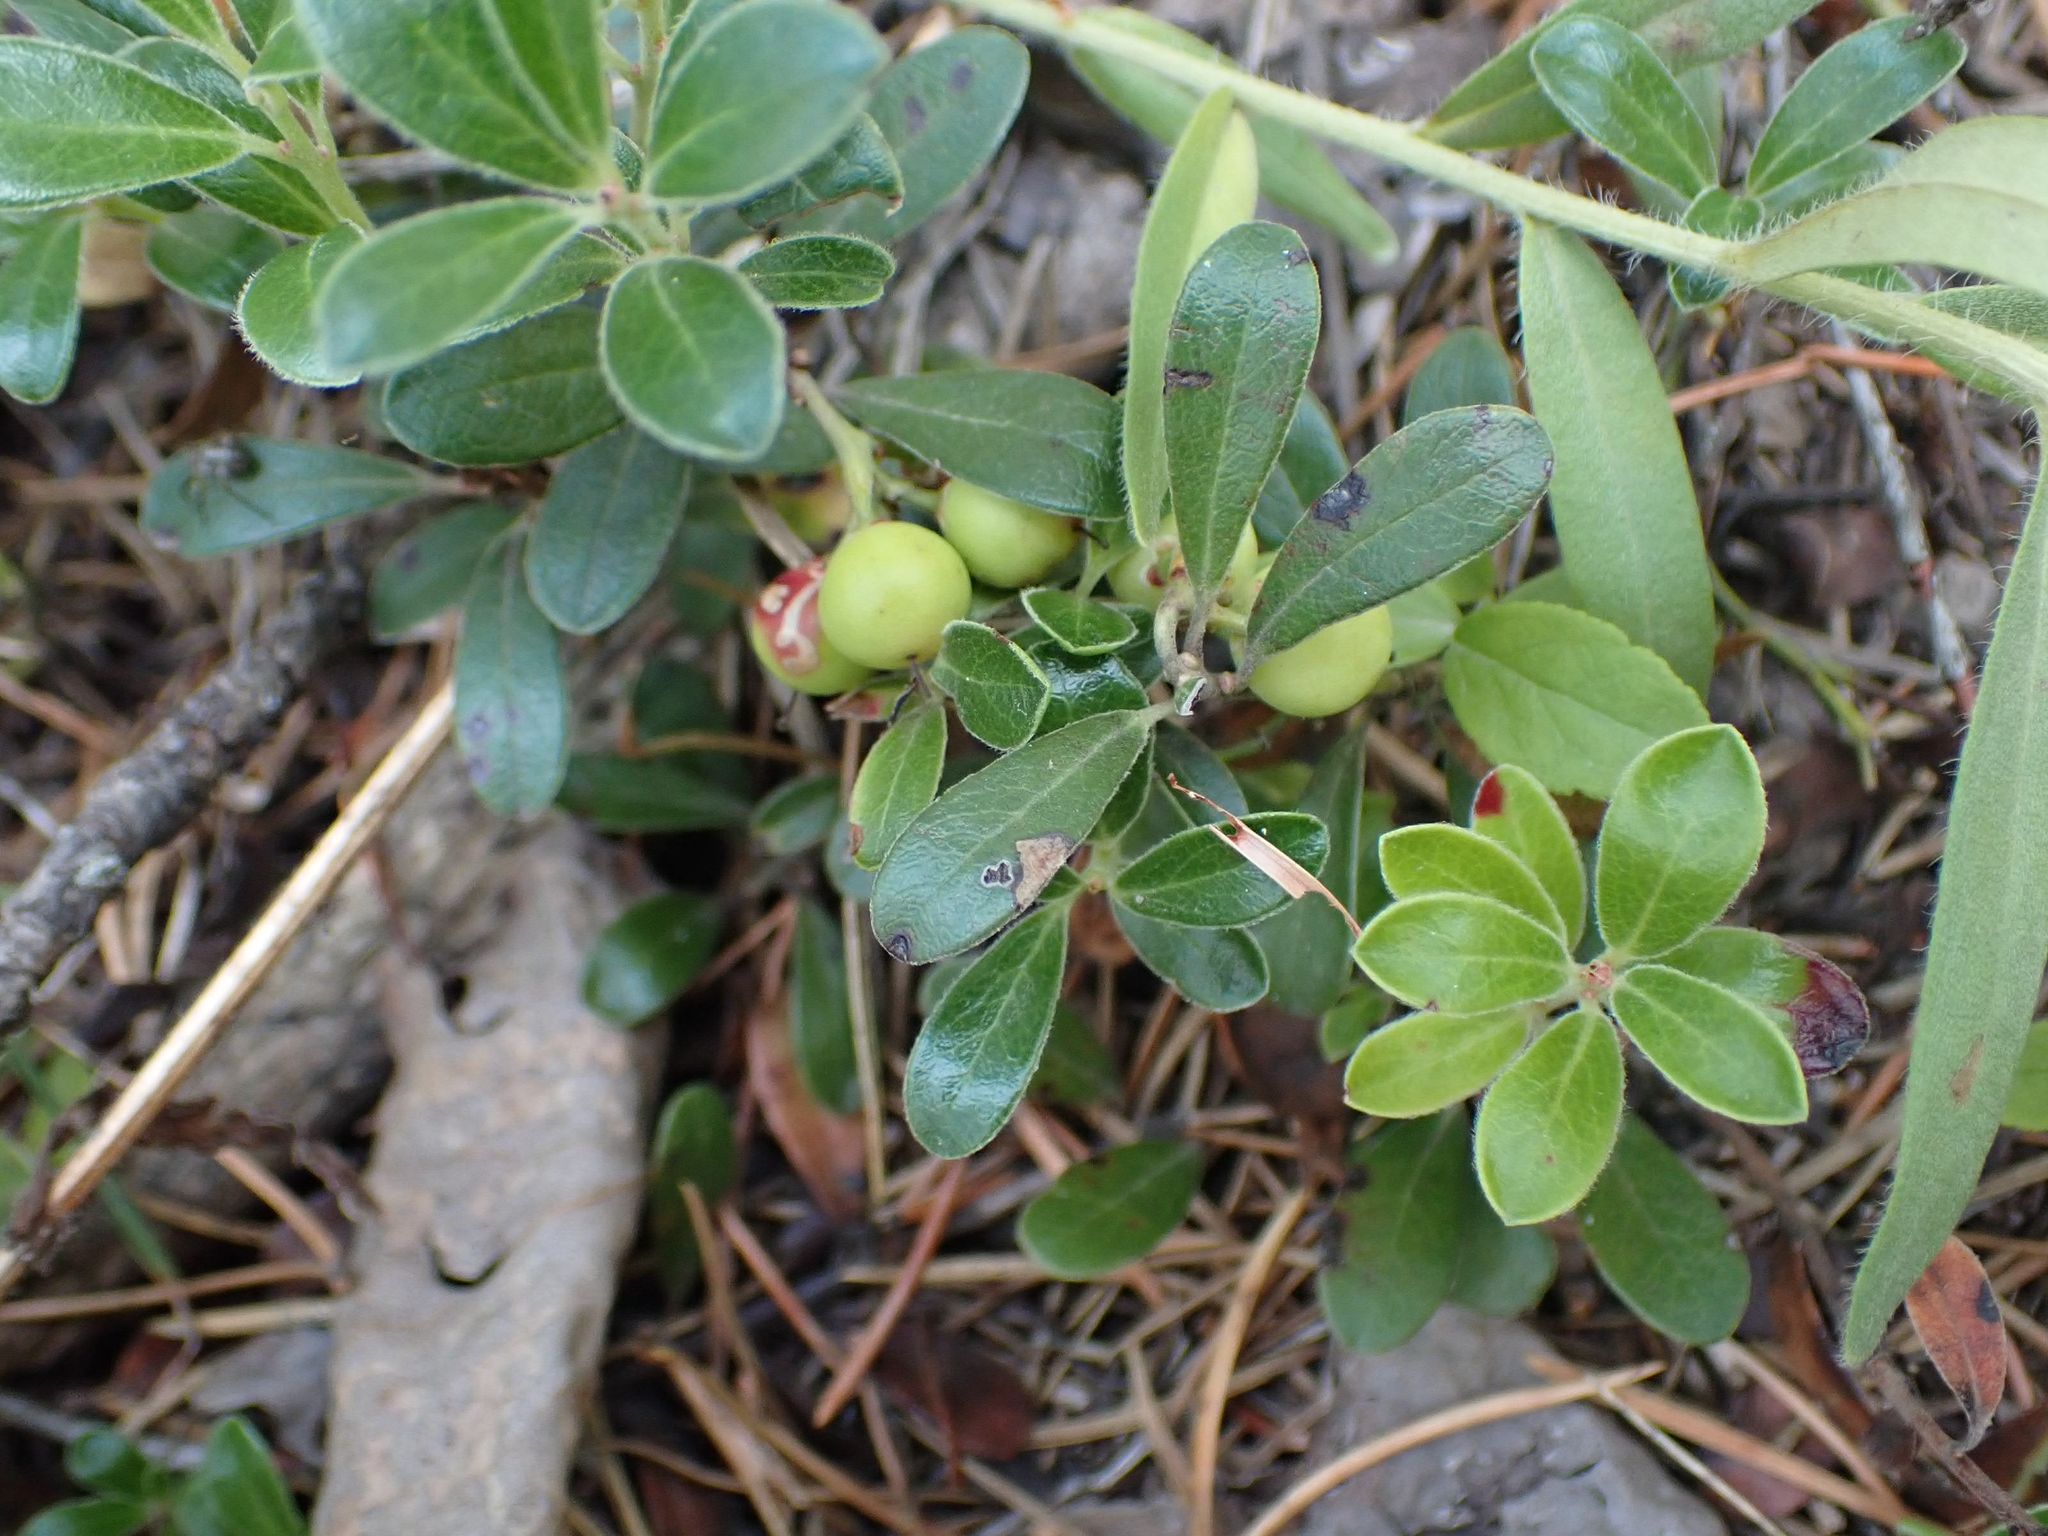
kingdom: Plantae
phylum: Tracheophyta
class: Magnoliopsida
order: Ericales
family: Ericaceae
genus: Arctostaphylos
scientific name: Arctostaphylos uva-ursi
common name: Bearberry
